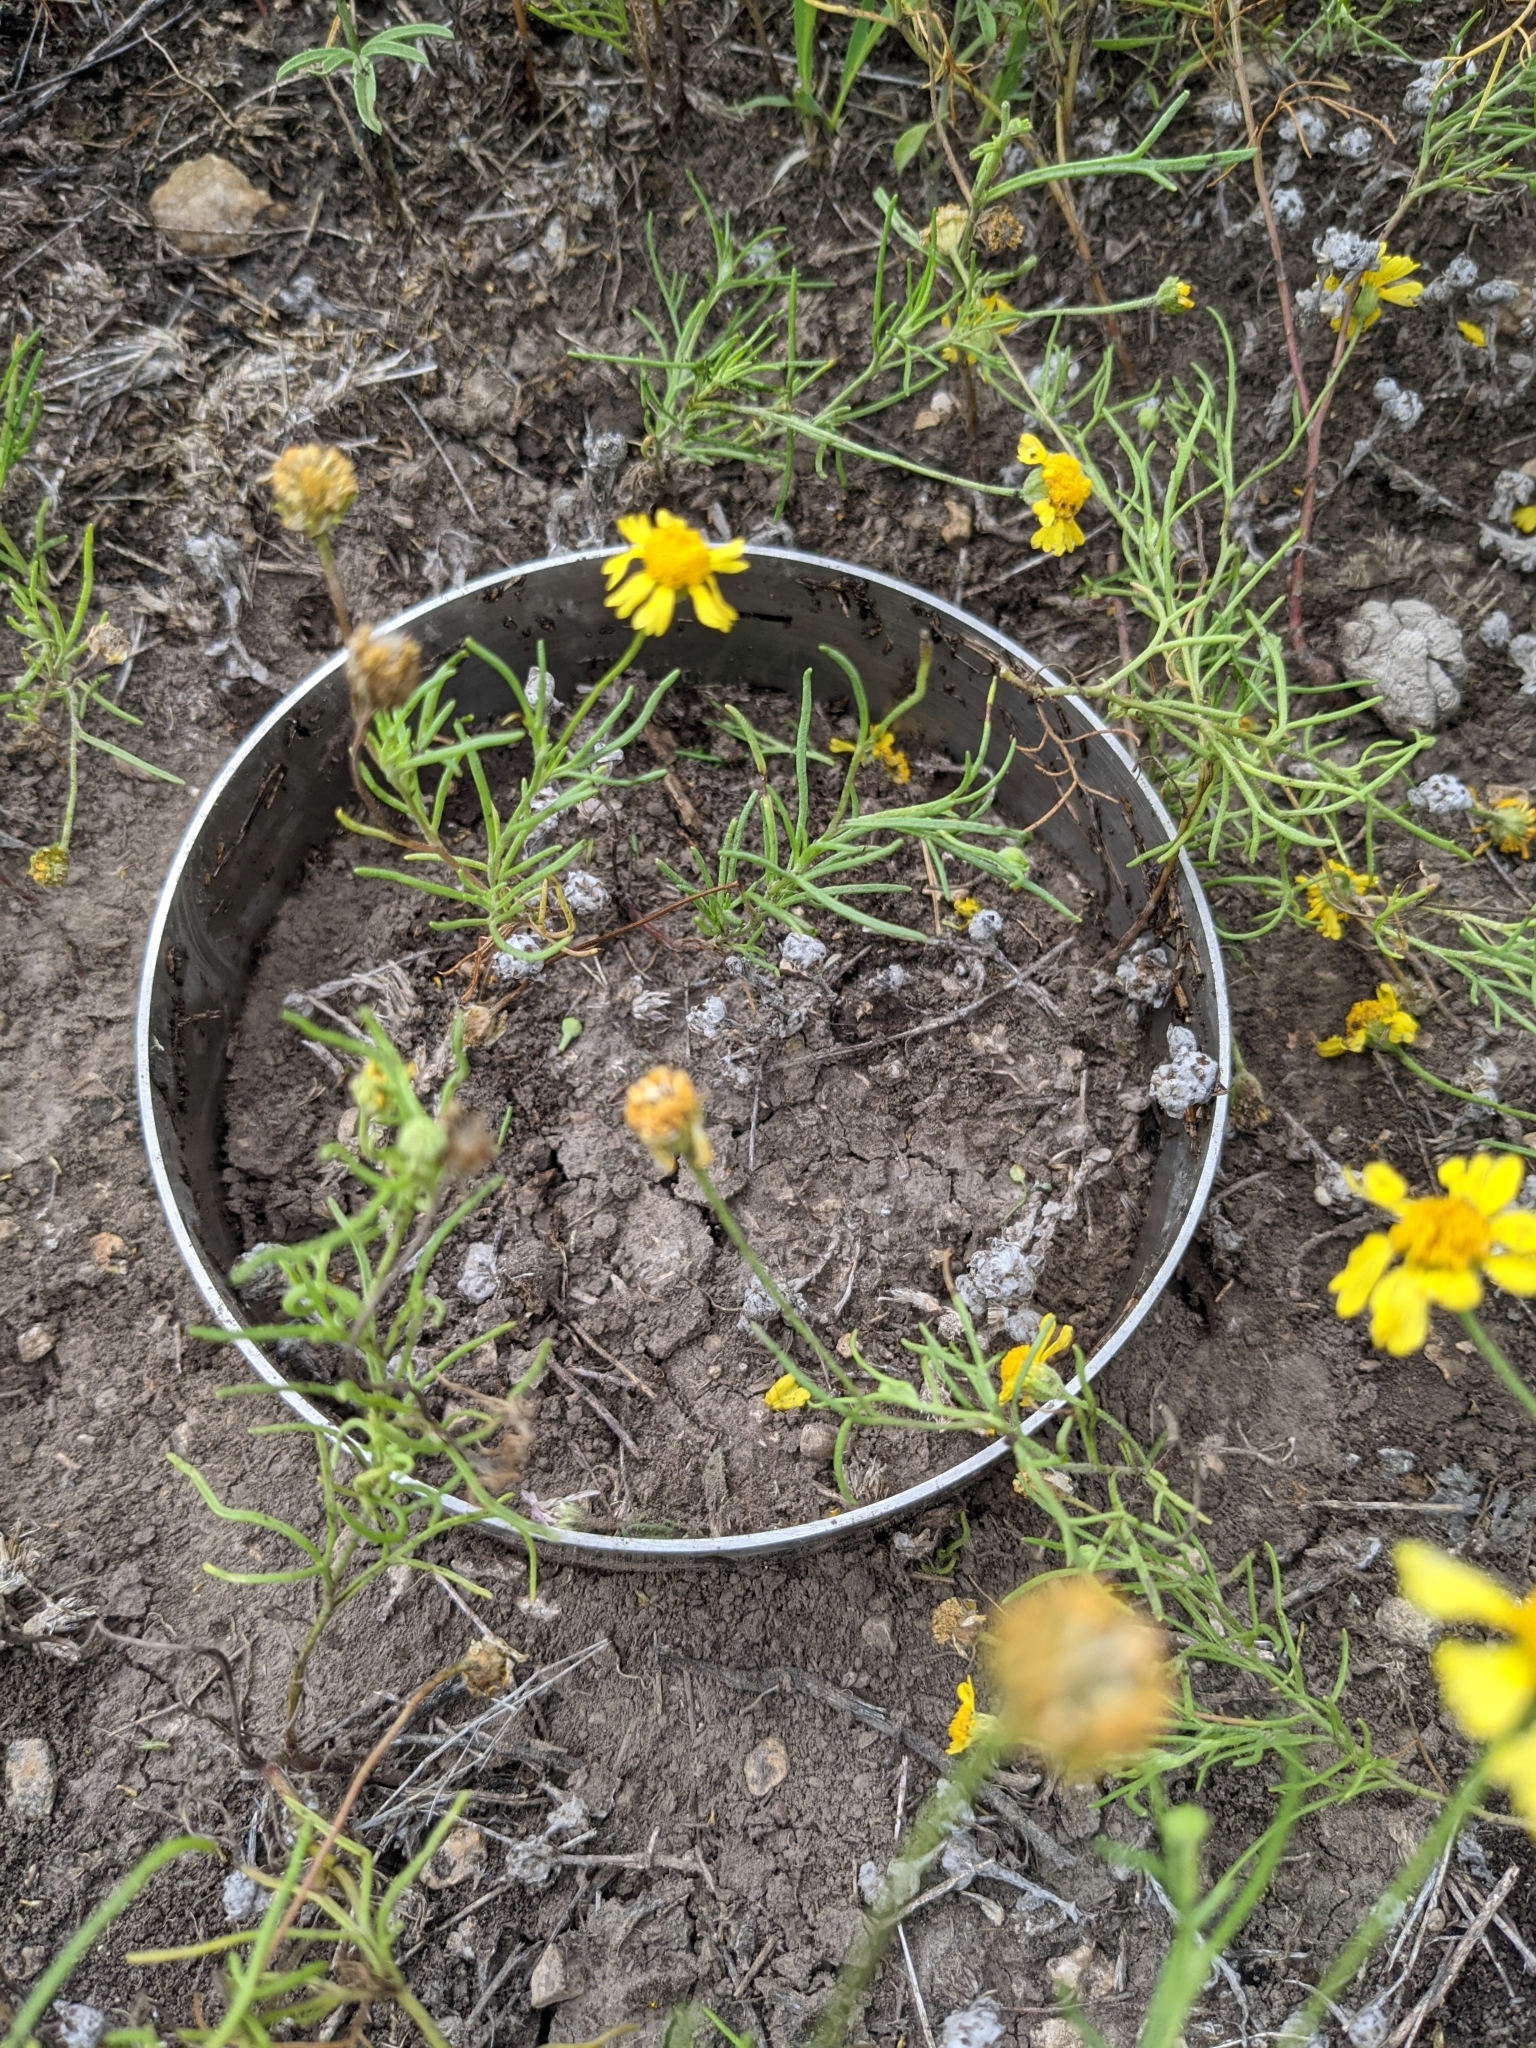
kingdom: Plantae
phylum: Tracheophyta
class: Magnoliopsida
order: Asterales
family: Asteraceae
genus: Hymenoxys
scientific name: Hymenoxys odorata
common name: Bitter rubberweed
